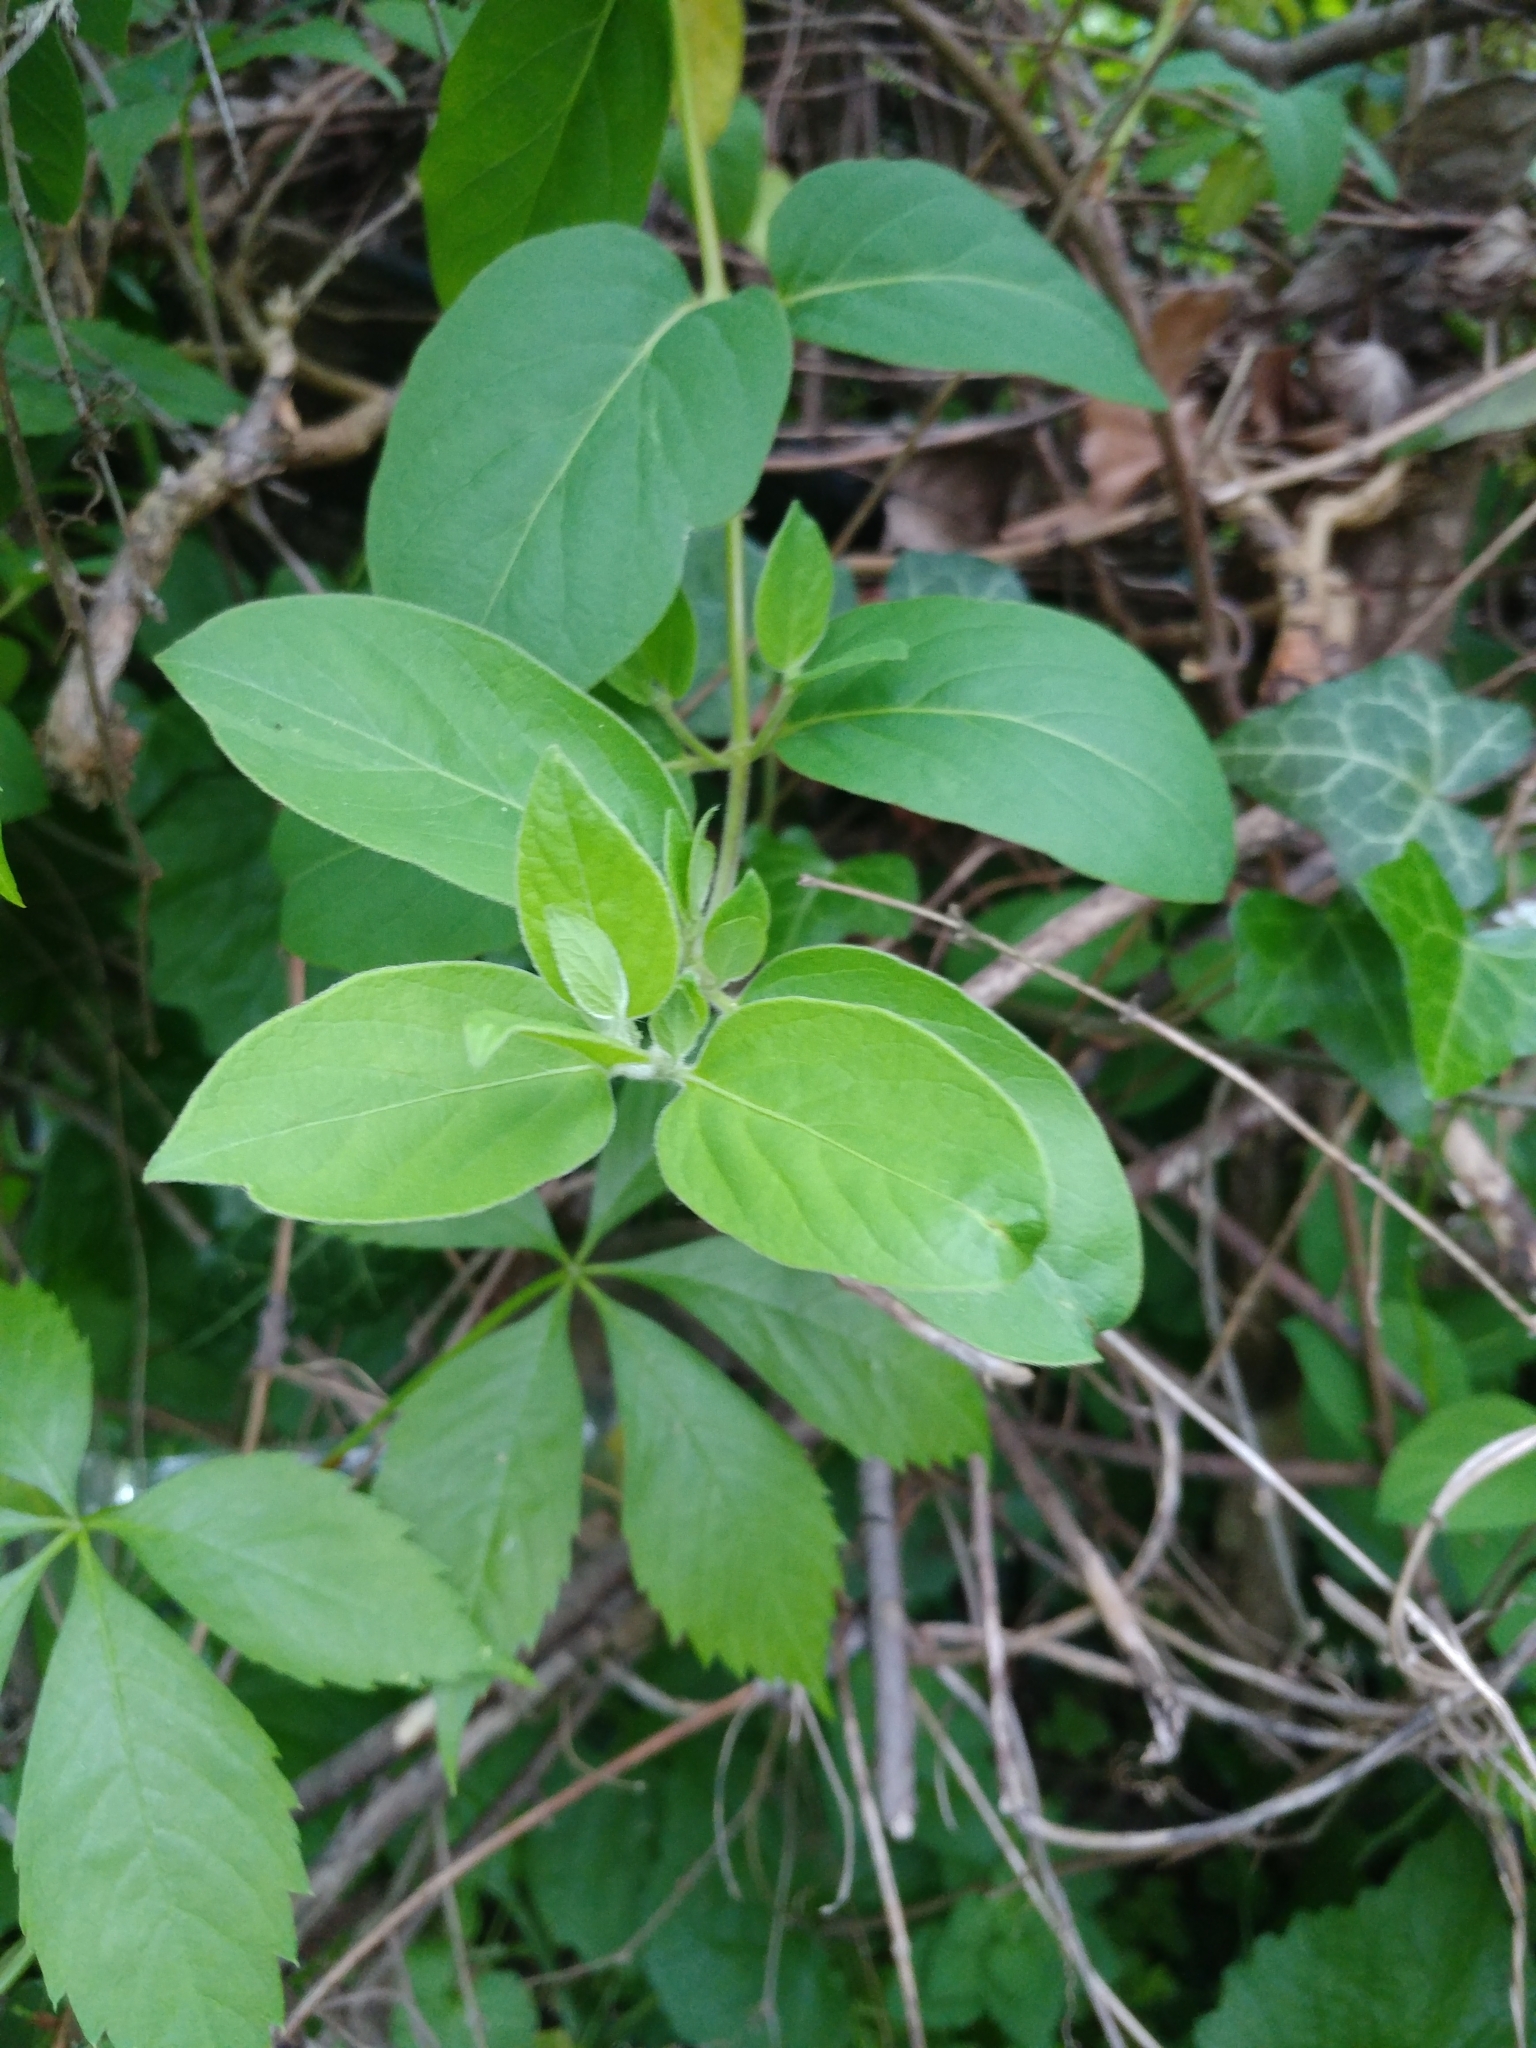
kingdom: Plantae
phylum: Tracheophyta
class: Magnoliopsida
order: Dipsacales
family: Caprifoliaceae
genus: Lonicera
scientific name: Lonicera japonica
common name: Japanese honeysuckle
